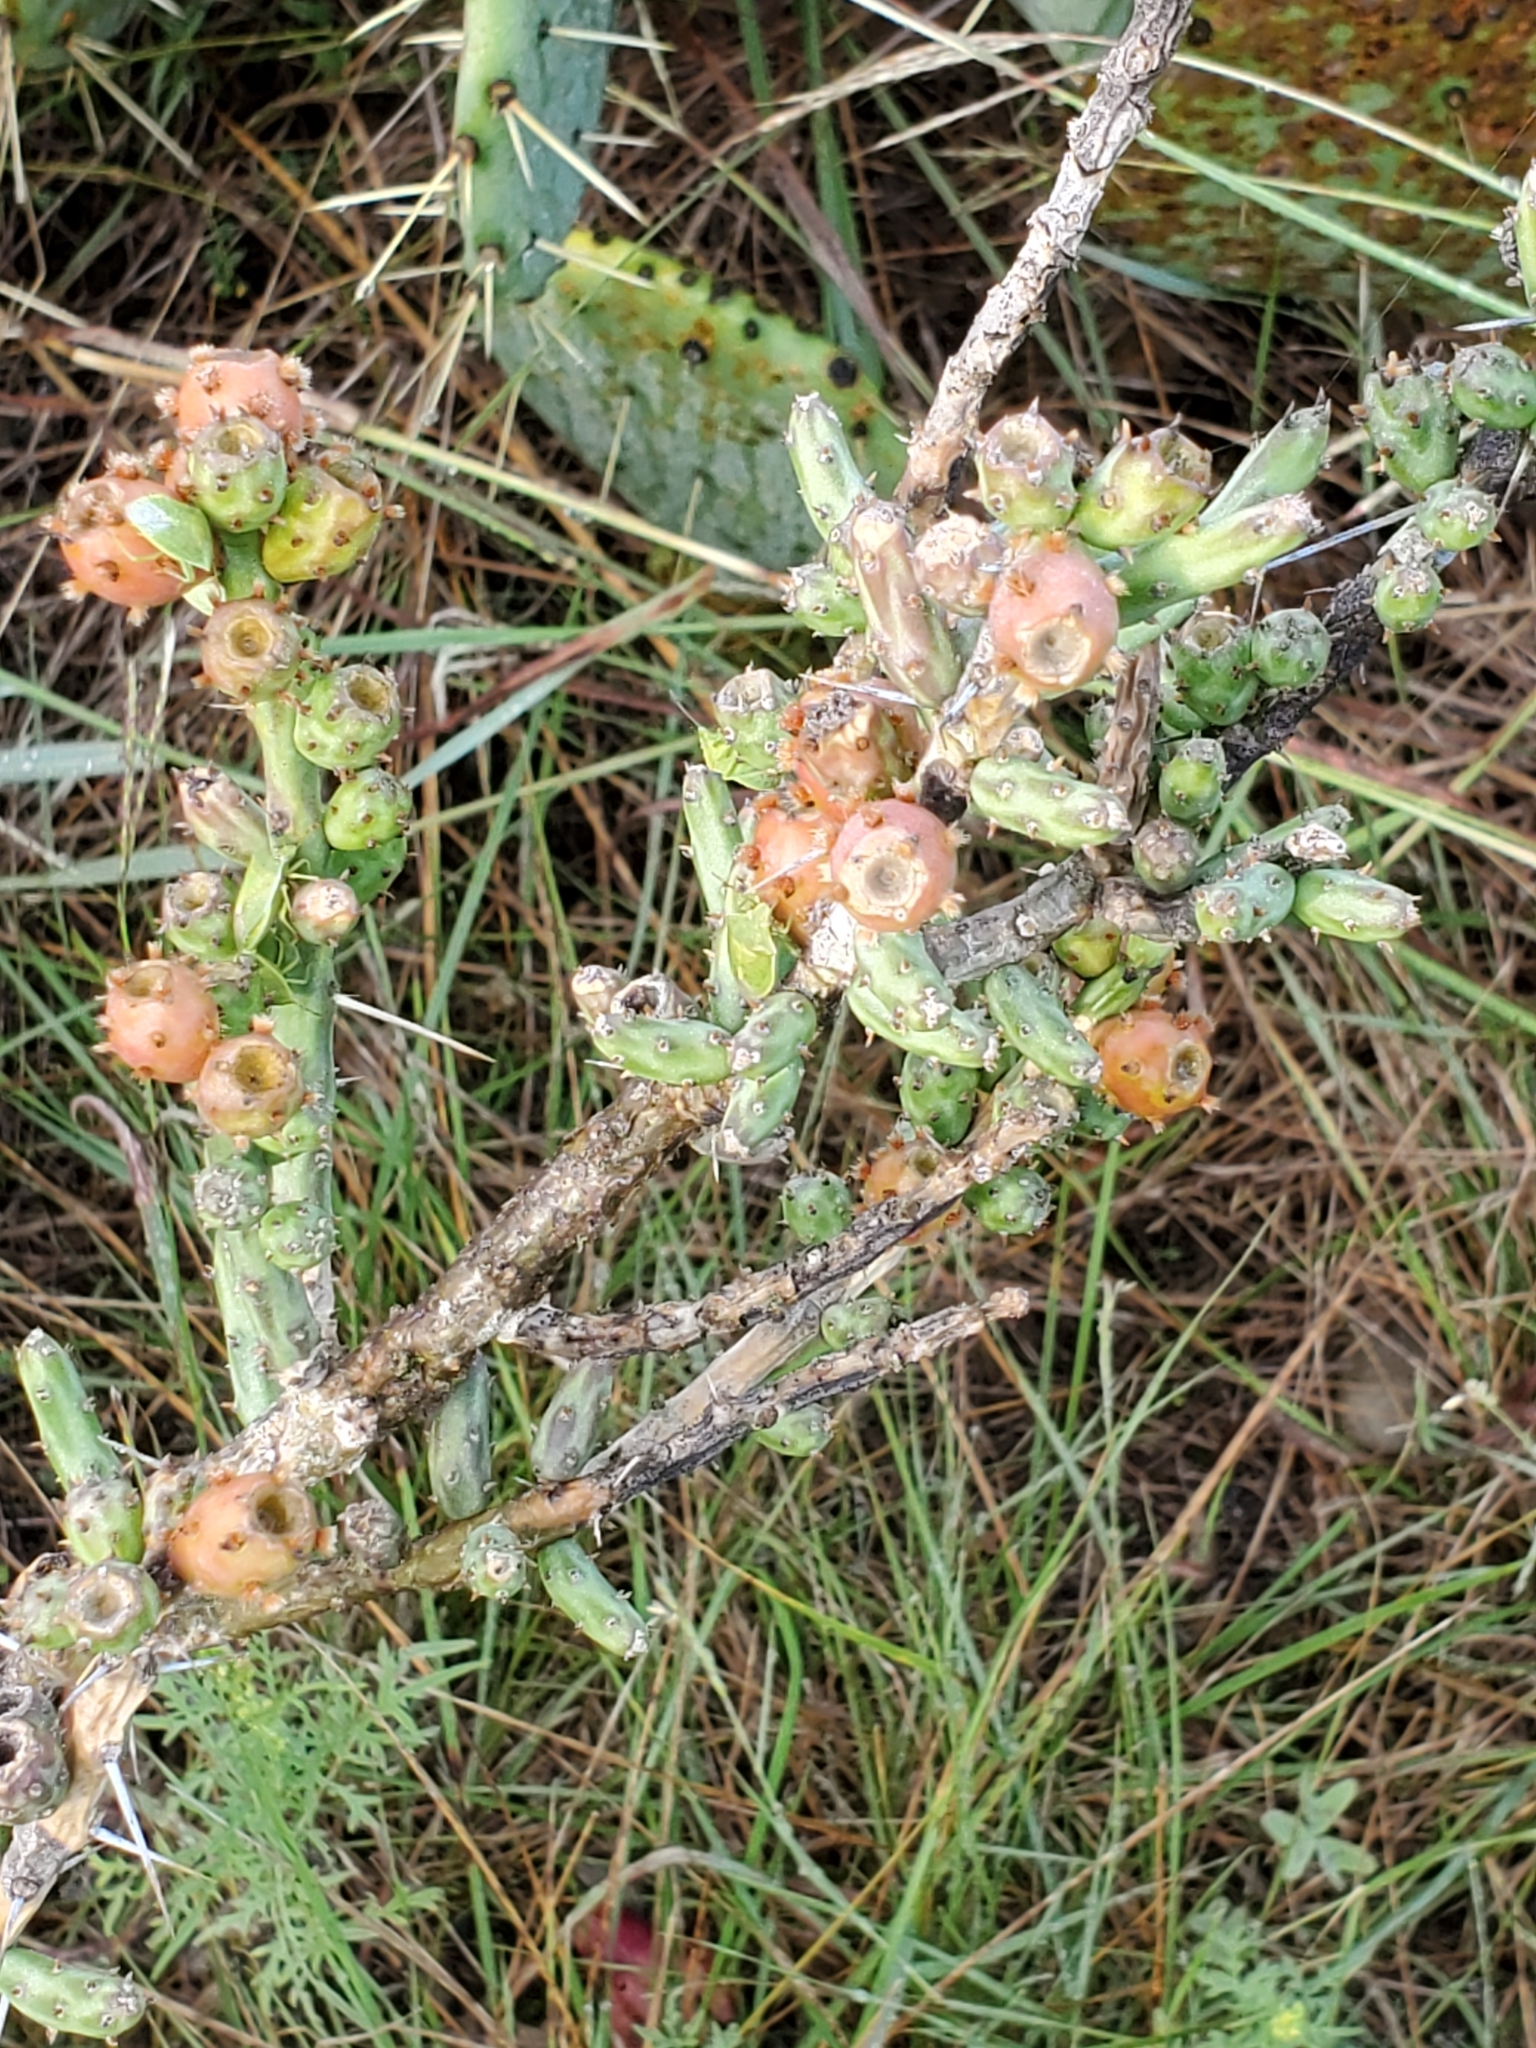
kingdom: Plantae
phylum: Tracheophyta
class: Magnoliopsida
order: Caryophyllales
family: Cactaceae
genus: Cylindropuntia
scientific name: Cylindropuntia leptocaulis
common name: Christmas cactus
